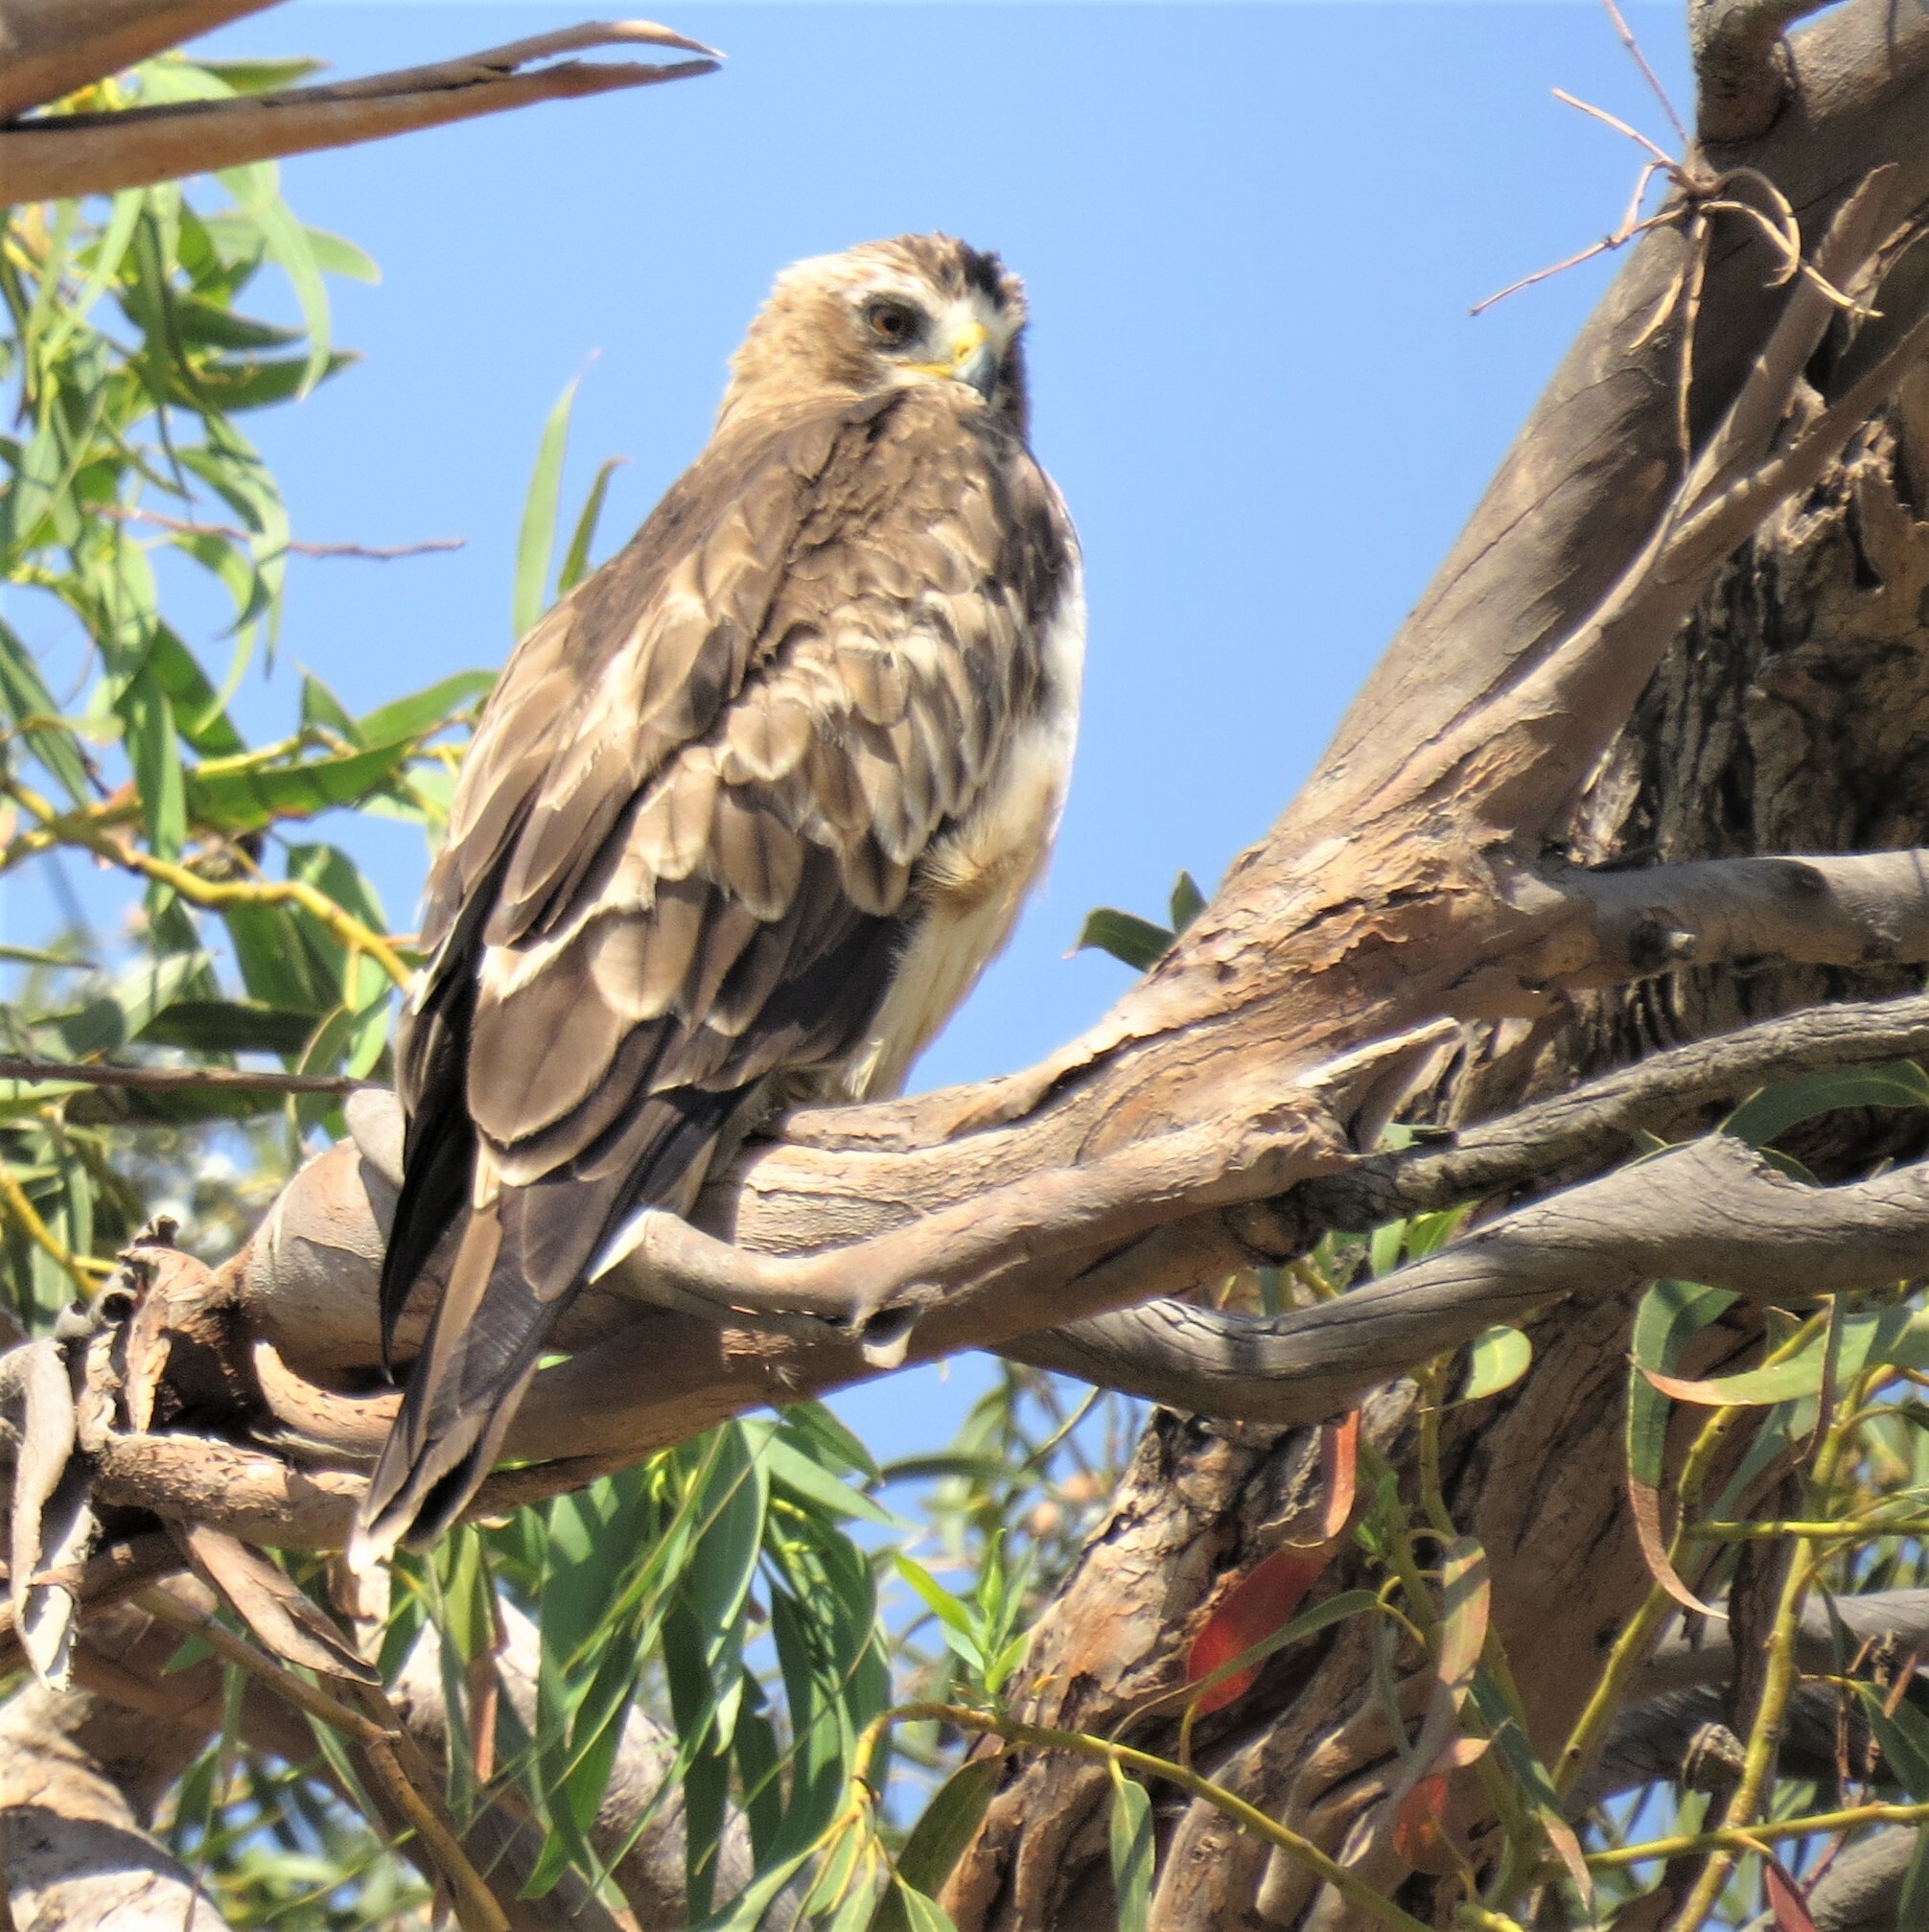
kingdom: Animalia
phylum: Chordata
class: Aves
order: Accipitriformes
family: Accipitridae
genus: Hieraaetus
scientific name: Hieraaetus pennatus
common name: Booted eagle
